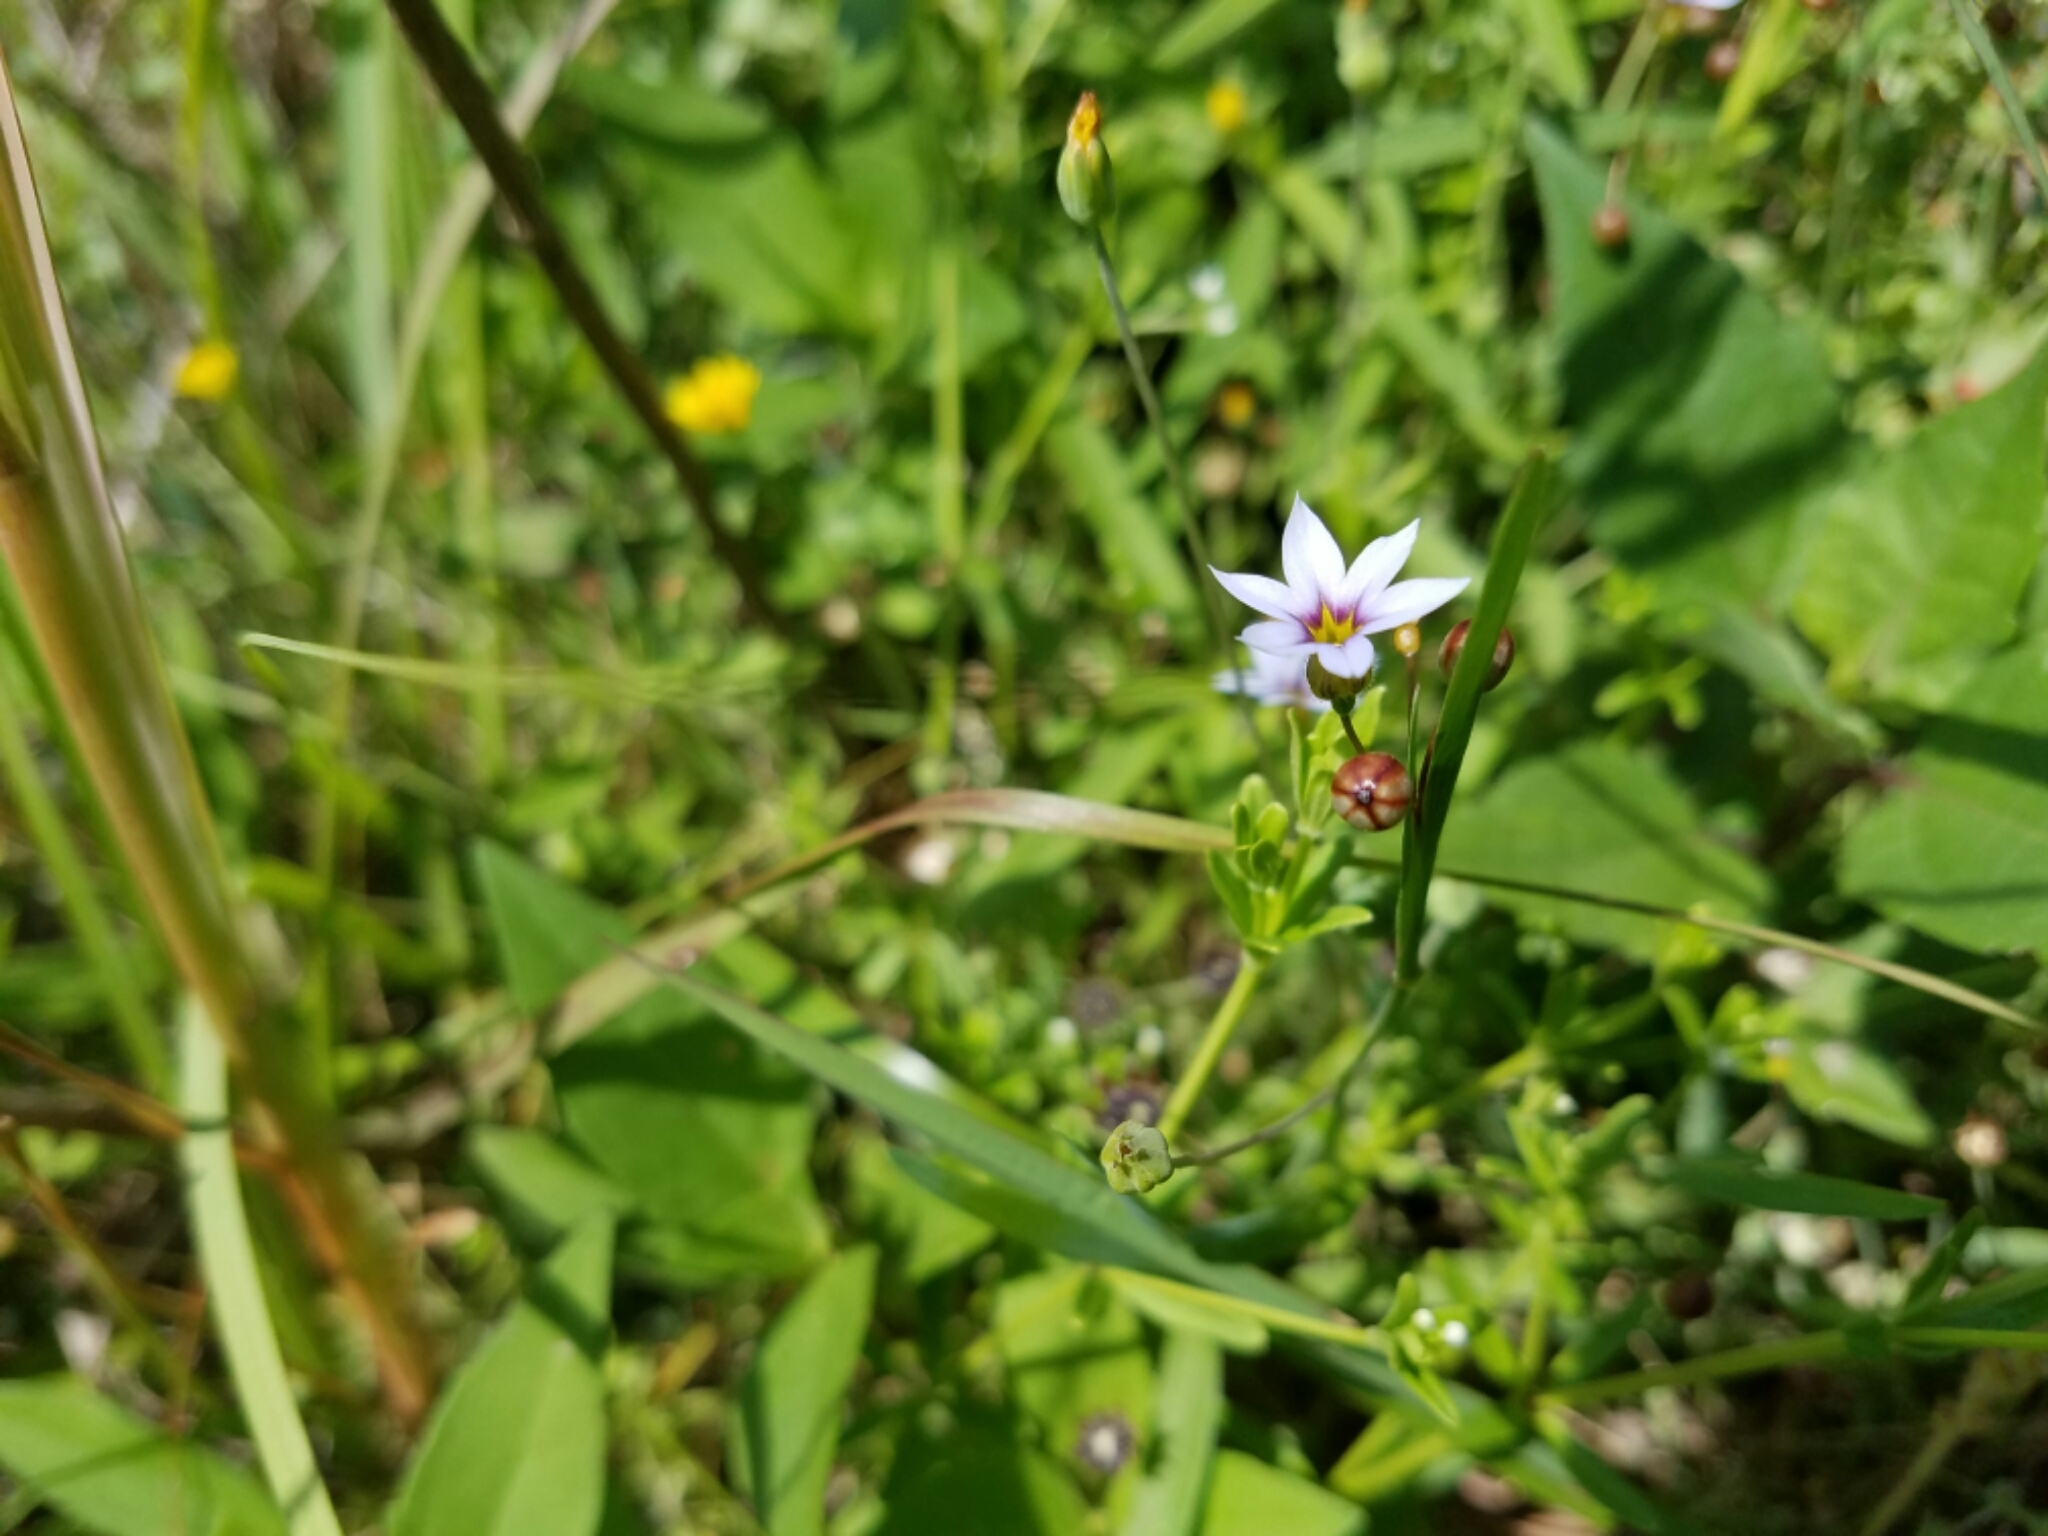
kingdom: Plantae
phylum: Tracheophyta
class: Liliopsida
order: Asparagales
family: Iridaceae
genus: Sisyrinchium
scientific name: Sisyrinchium micranthum
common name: Bermuda pigroot
